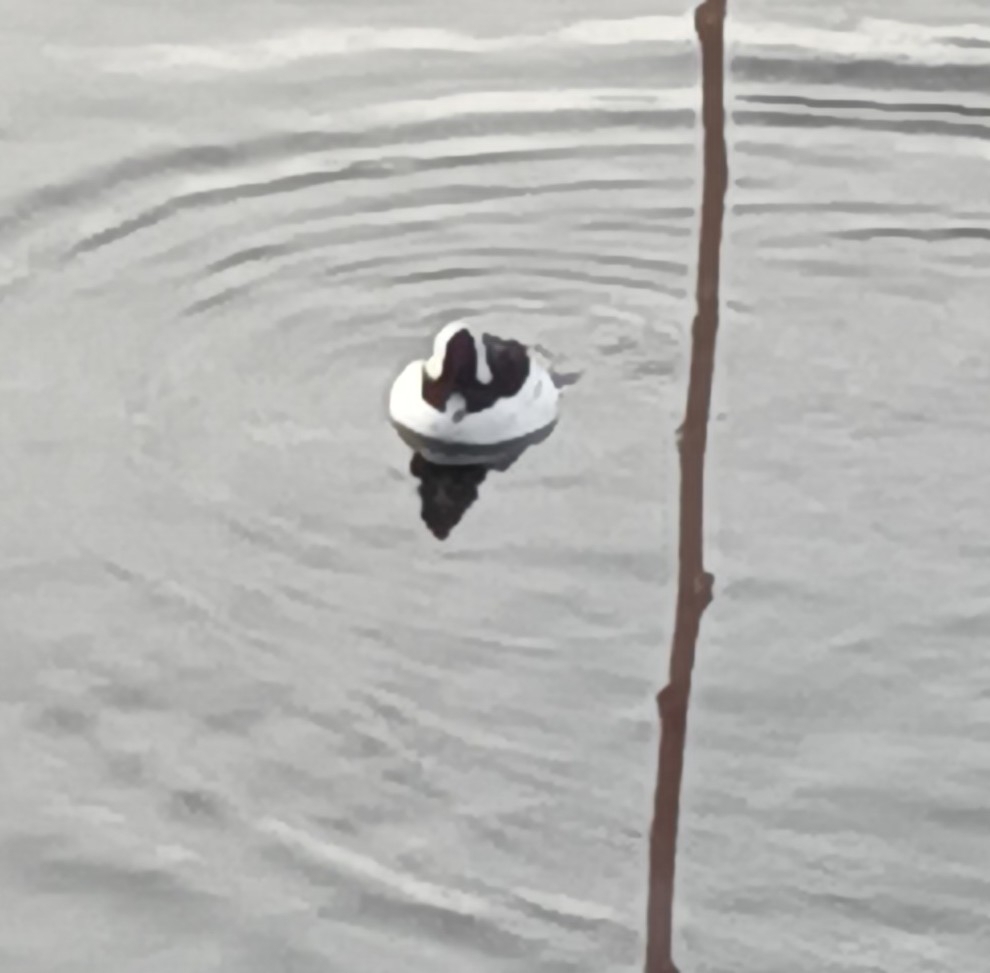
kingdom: Animalia
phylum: Chordata
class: Aves
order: Anseriformes
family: Anatidae
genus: Bucephala
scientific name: Bucephala albeola
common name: Bufflehead
